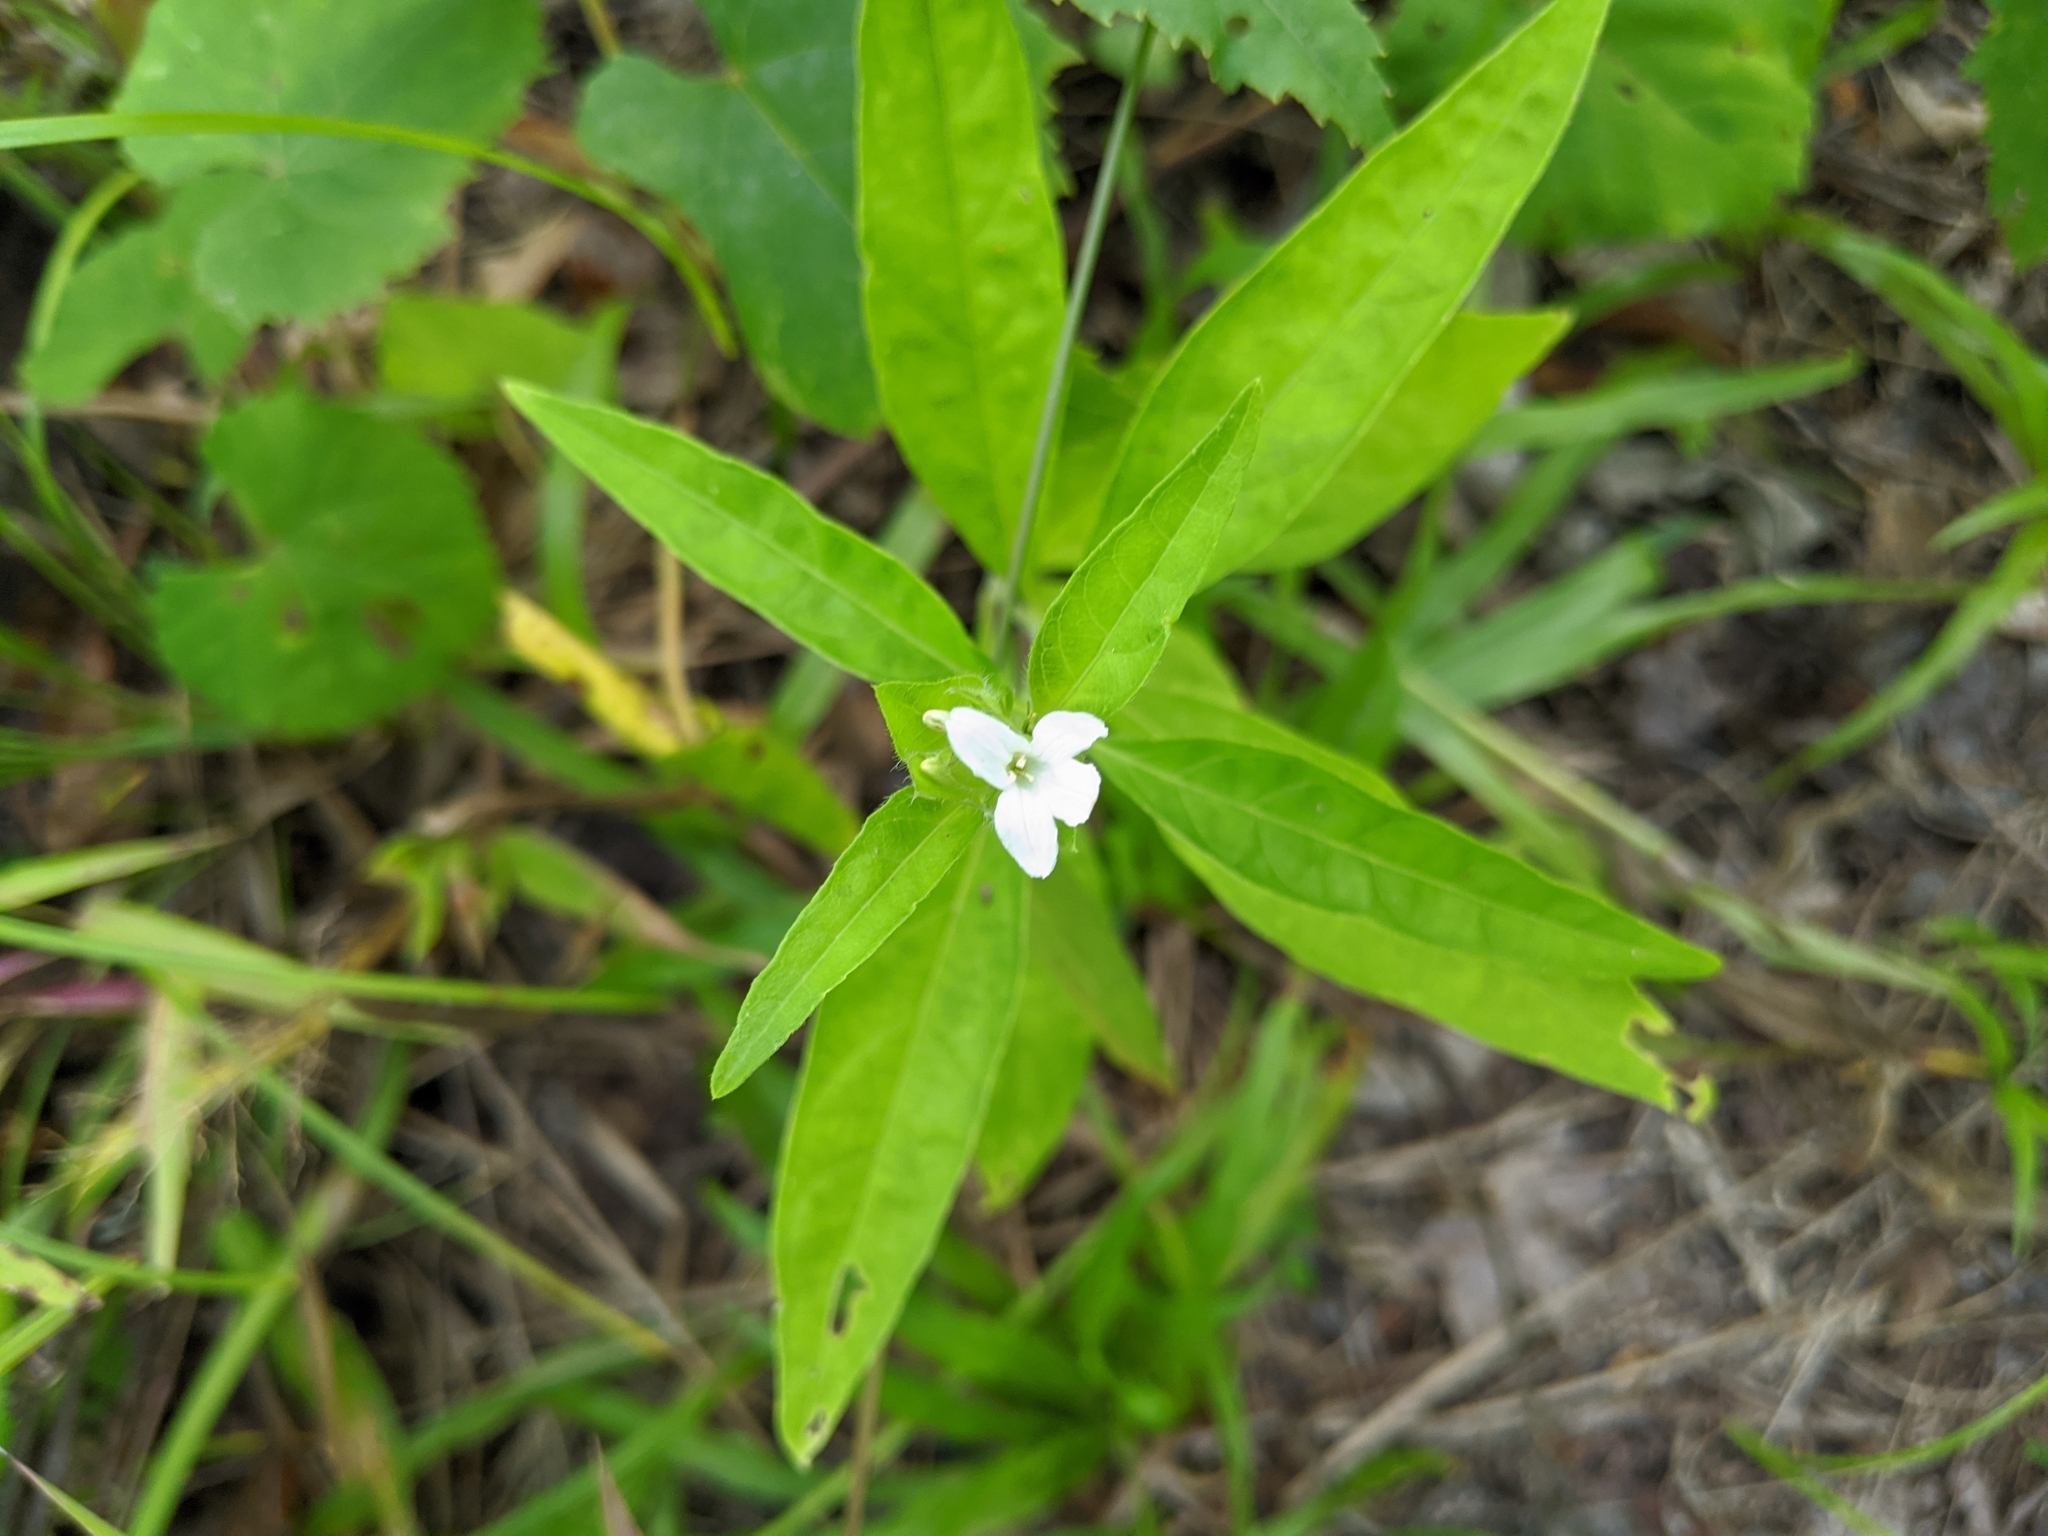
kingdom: Plantae
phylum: Tracheophyta
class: Magnoliopsida
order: Lamiales
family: Acanthaceae
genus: Yeatesia
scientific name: Yeatesia viridiflora
